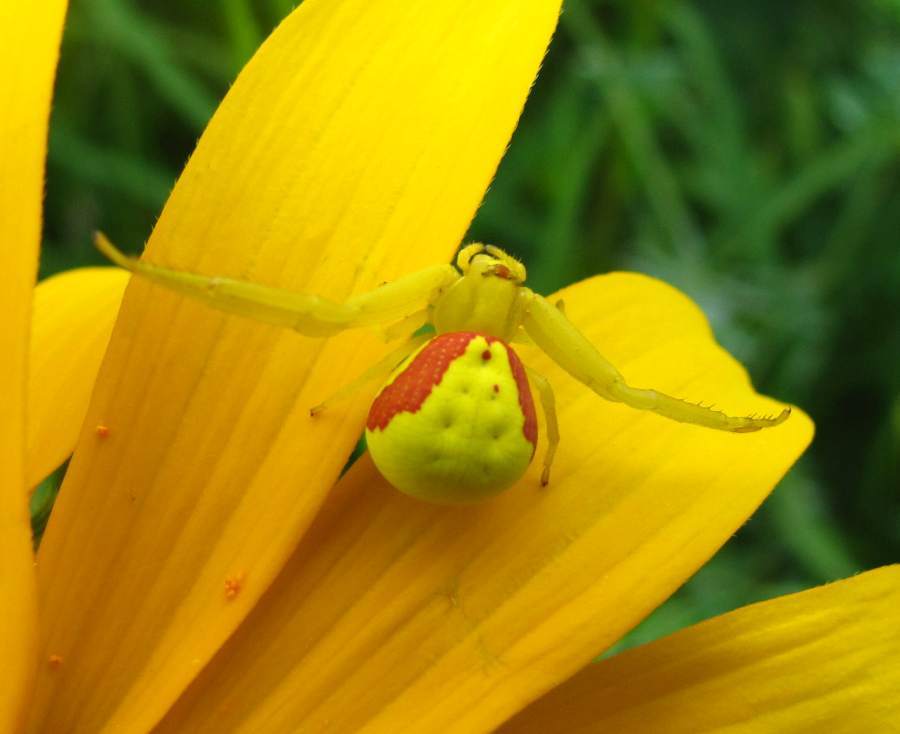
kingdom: Animalia
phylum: Arthropoda
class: Arachnida
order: Araneae
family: Thomisidae
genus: Misumena
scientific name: Misumena vatia
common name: Goldenrod crab spider
